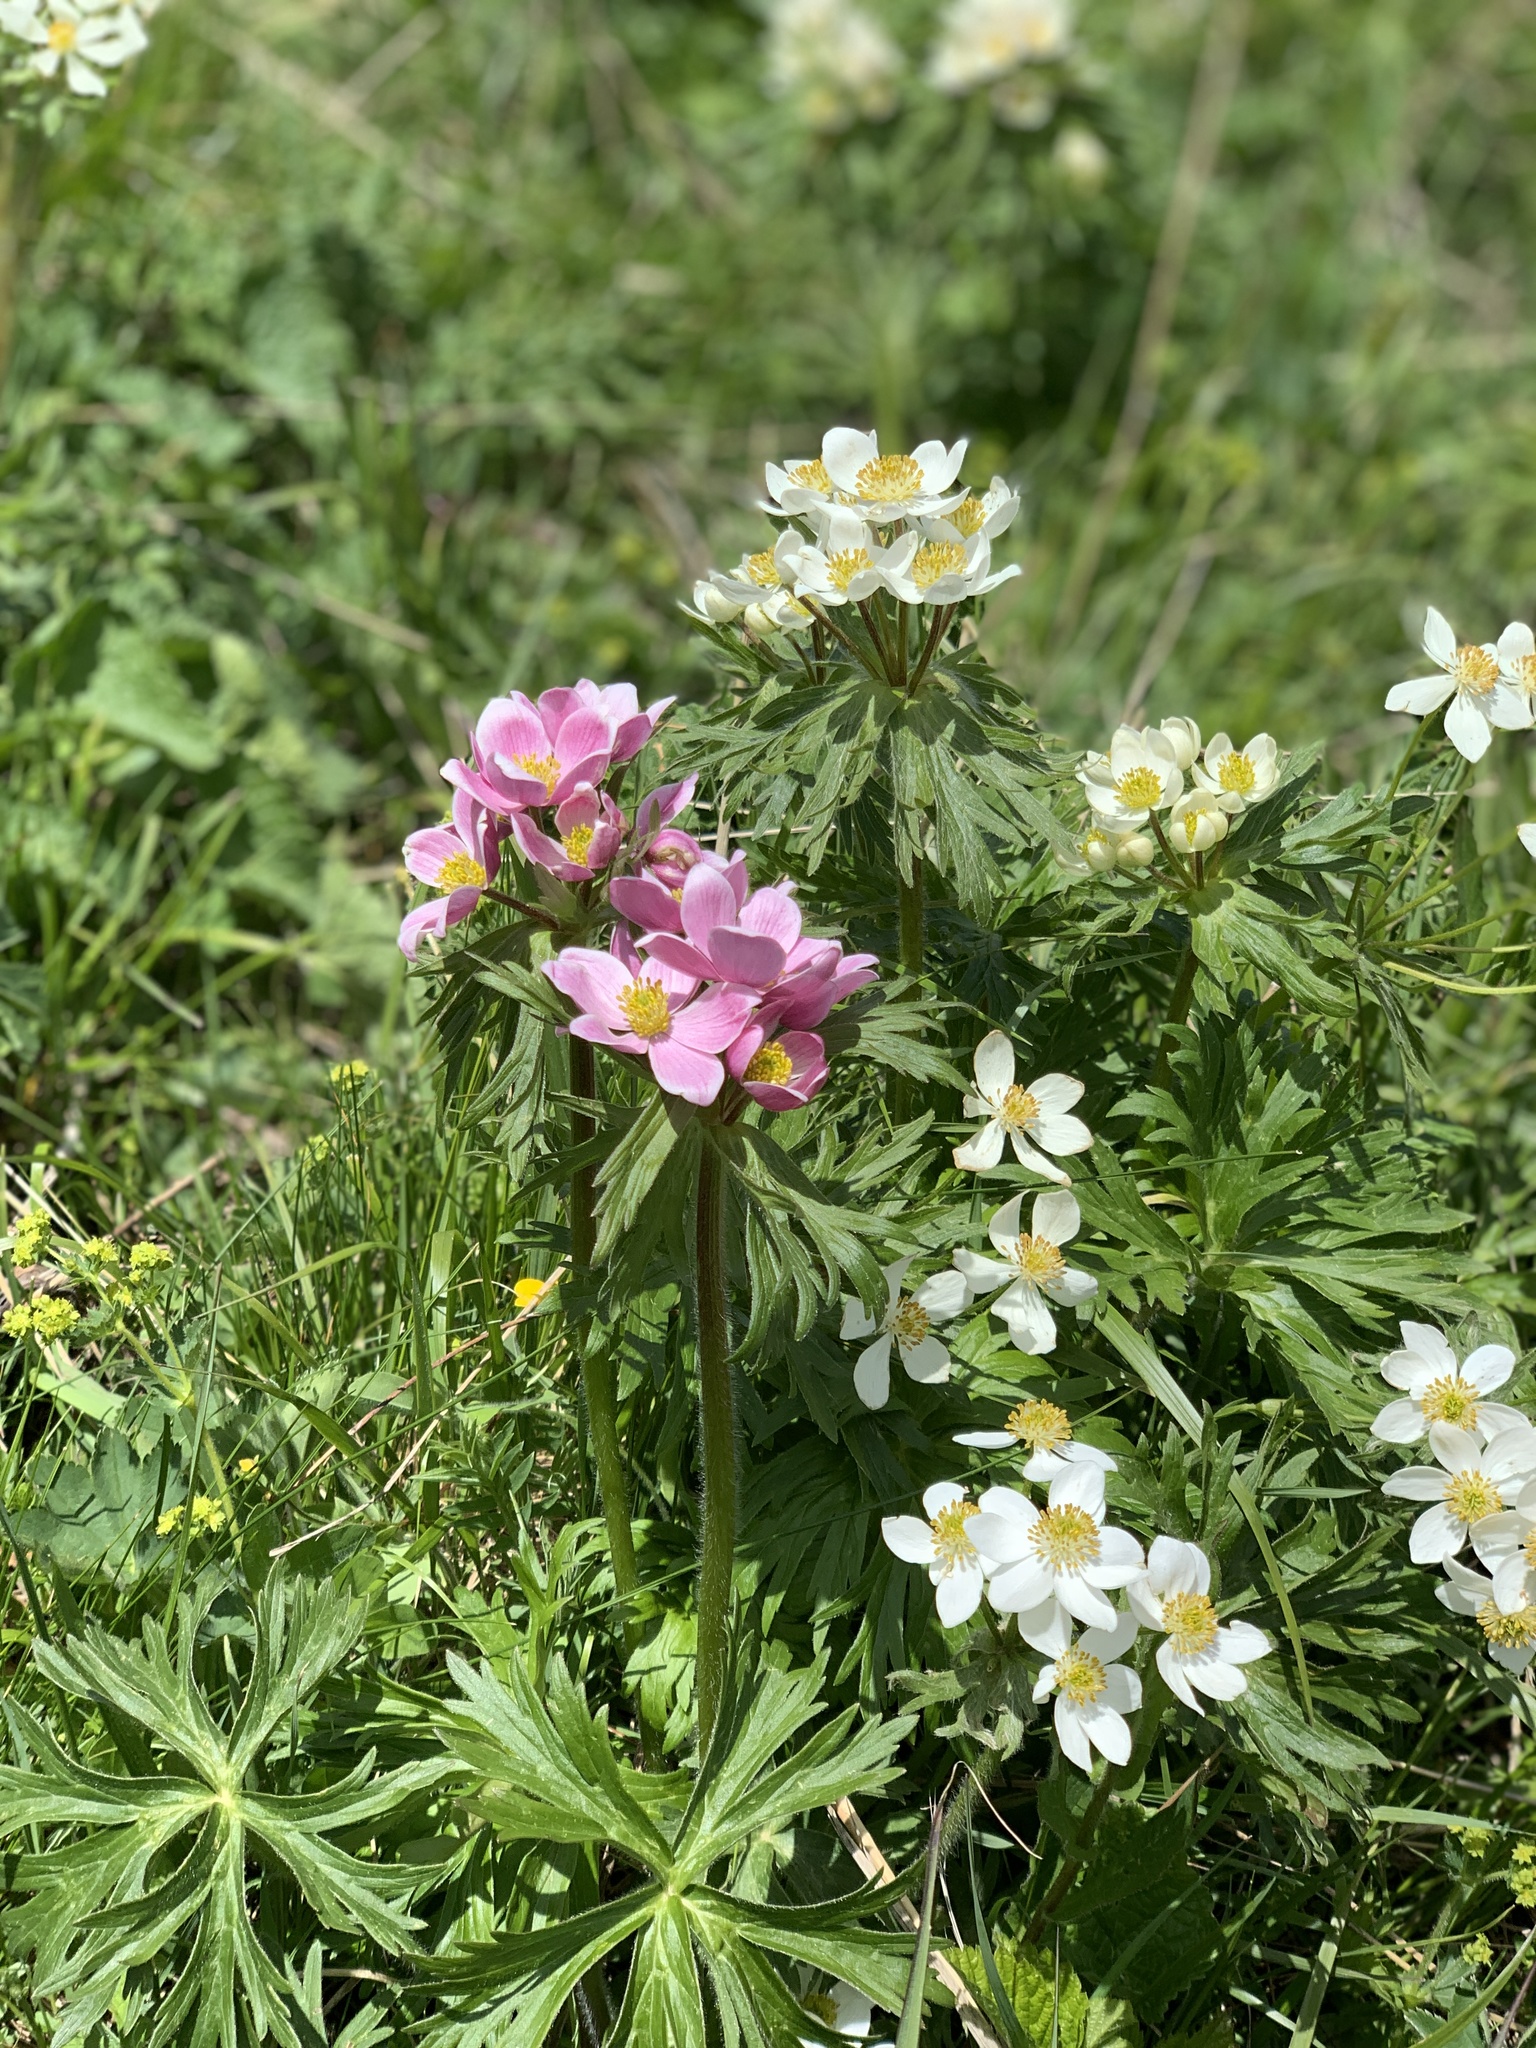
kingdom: Plantae
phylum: Tracheophyta
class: Magnoliopsida
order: Ranunculales
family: Ranunculaceae
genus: Anemonastrum
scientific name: Anemonastrum narcissiflorum
